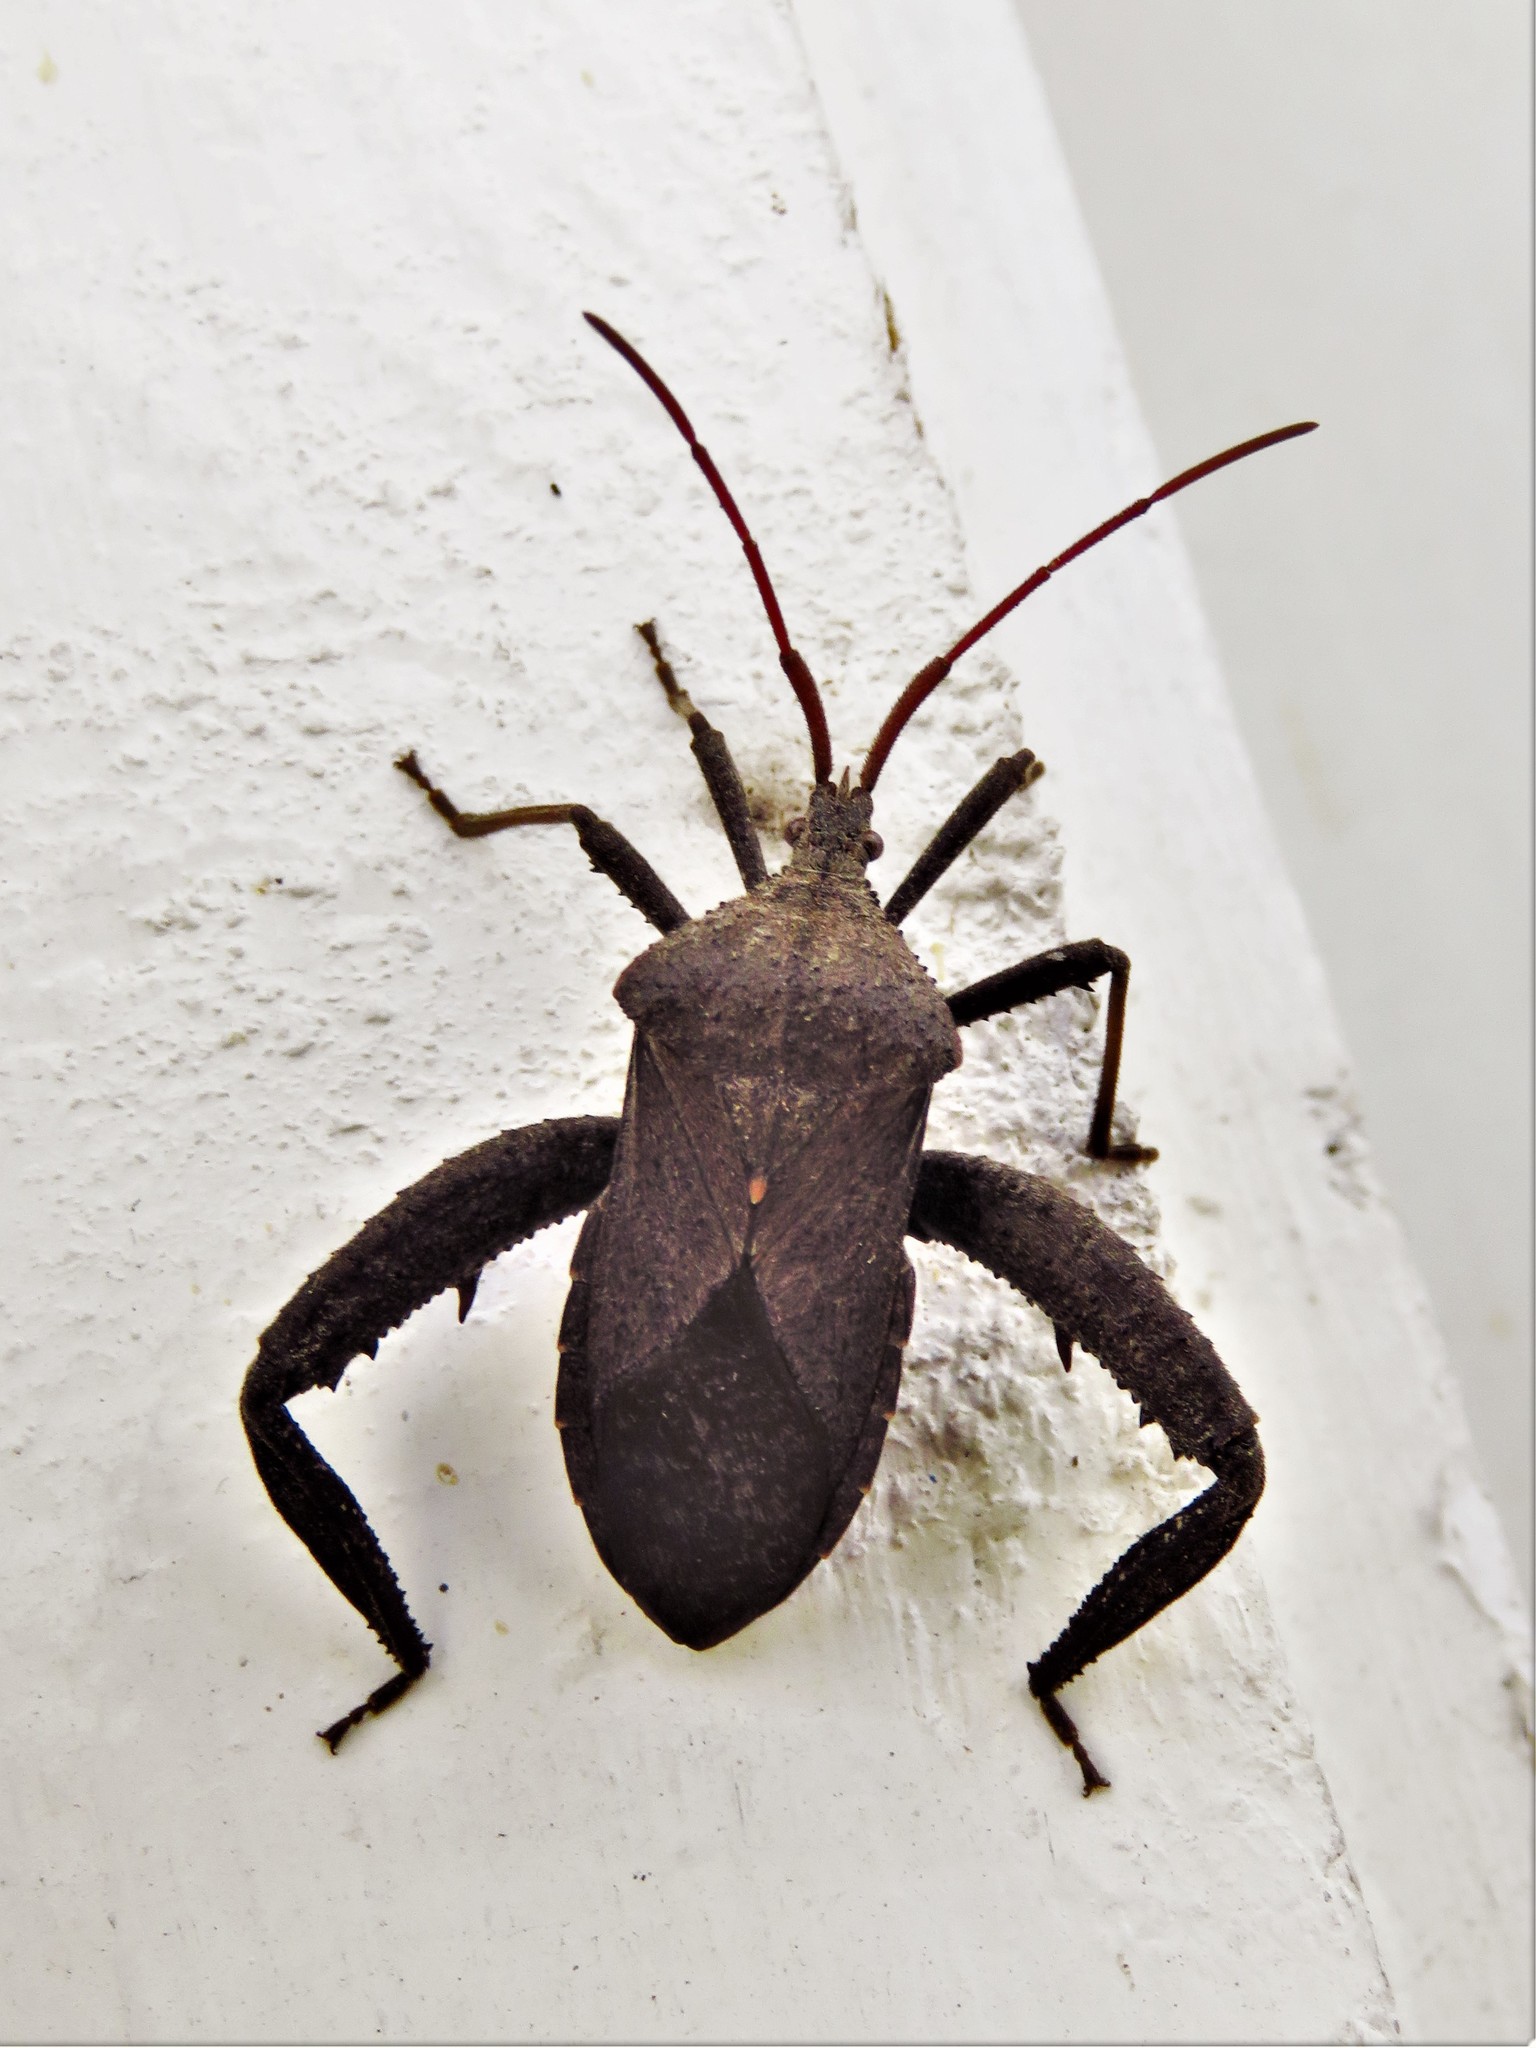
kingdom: Animalia
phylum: Arthropoda
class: Insecta
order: Hemiptera
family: Coreidae
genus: Acanthocephala
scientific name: Acanthocephala femorata
